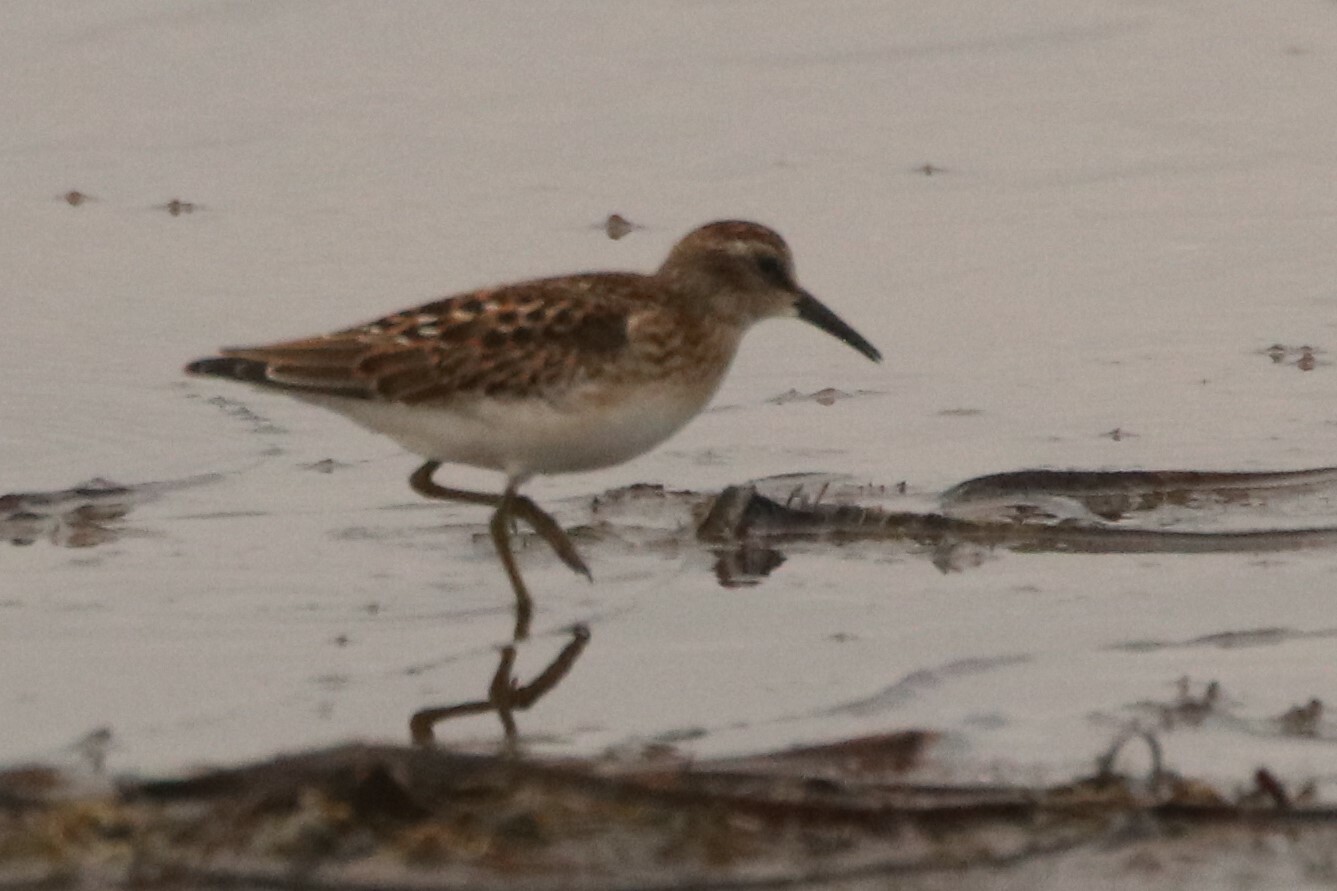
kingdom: Animalia
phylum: Chordata
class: Aves
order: Charadriiformes
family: Scolopacidae
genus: Calidris
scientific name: Calidris minutilla
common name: Least sandpiper
